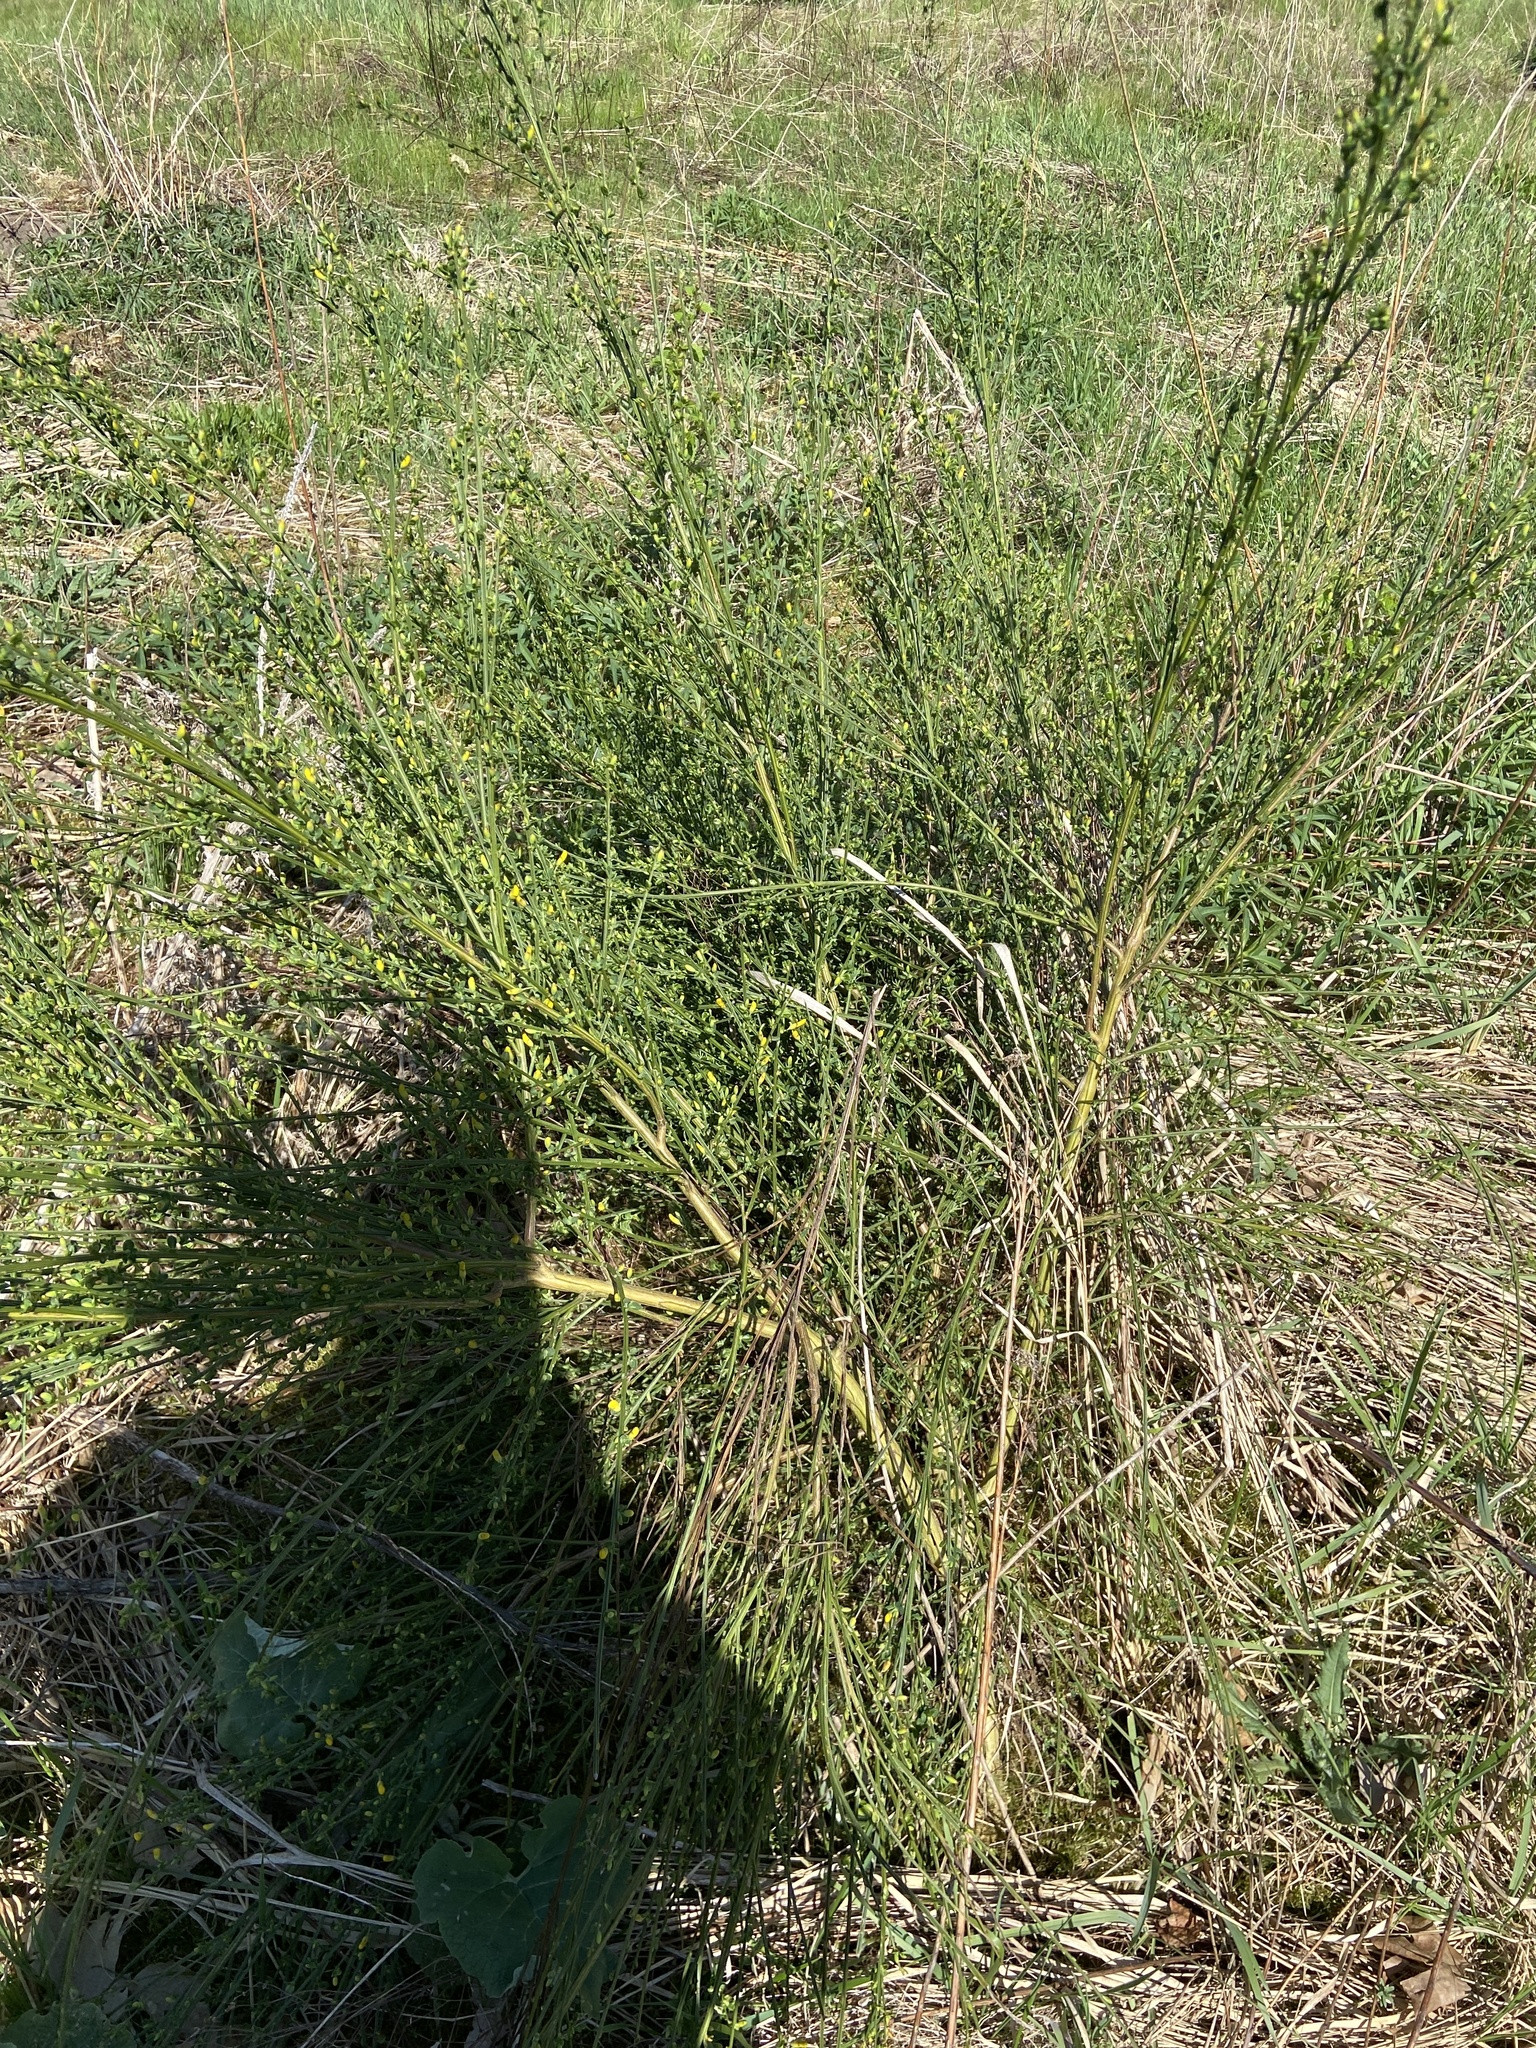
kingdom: Plantae
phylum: Tracheophyta
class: Magnoliopsida
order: Fabales
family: Fabaceae
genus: Cytisus
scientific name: Cytisus scoparius
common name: Scotch broom
